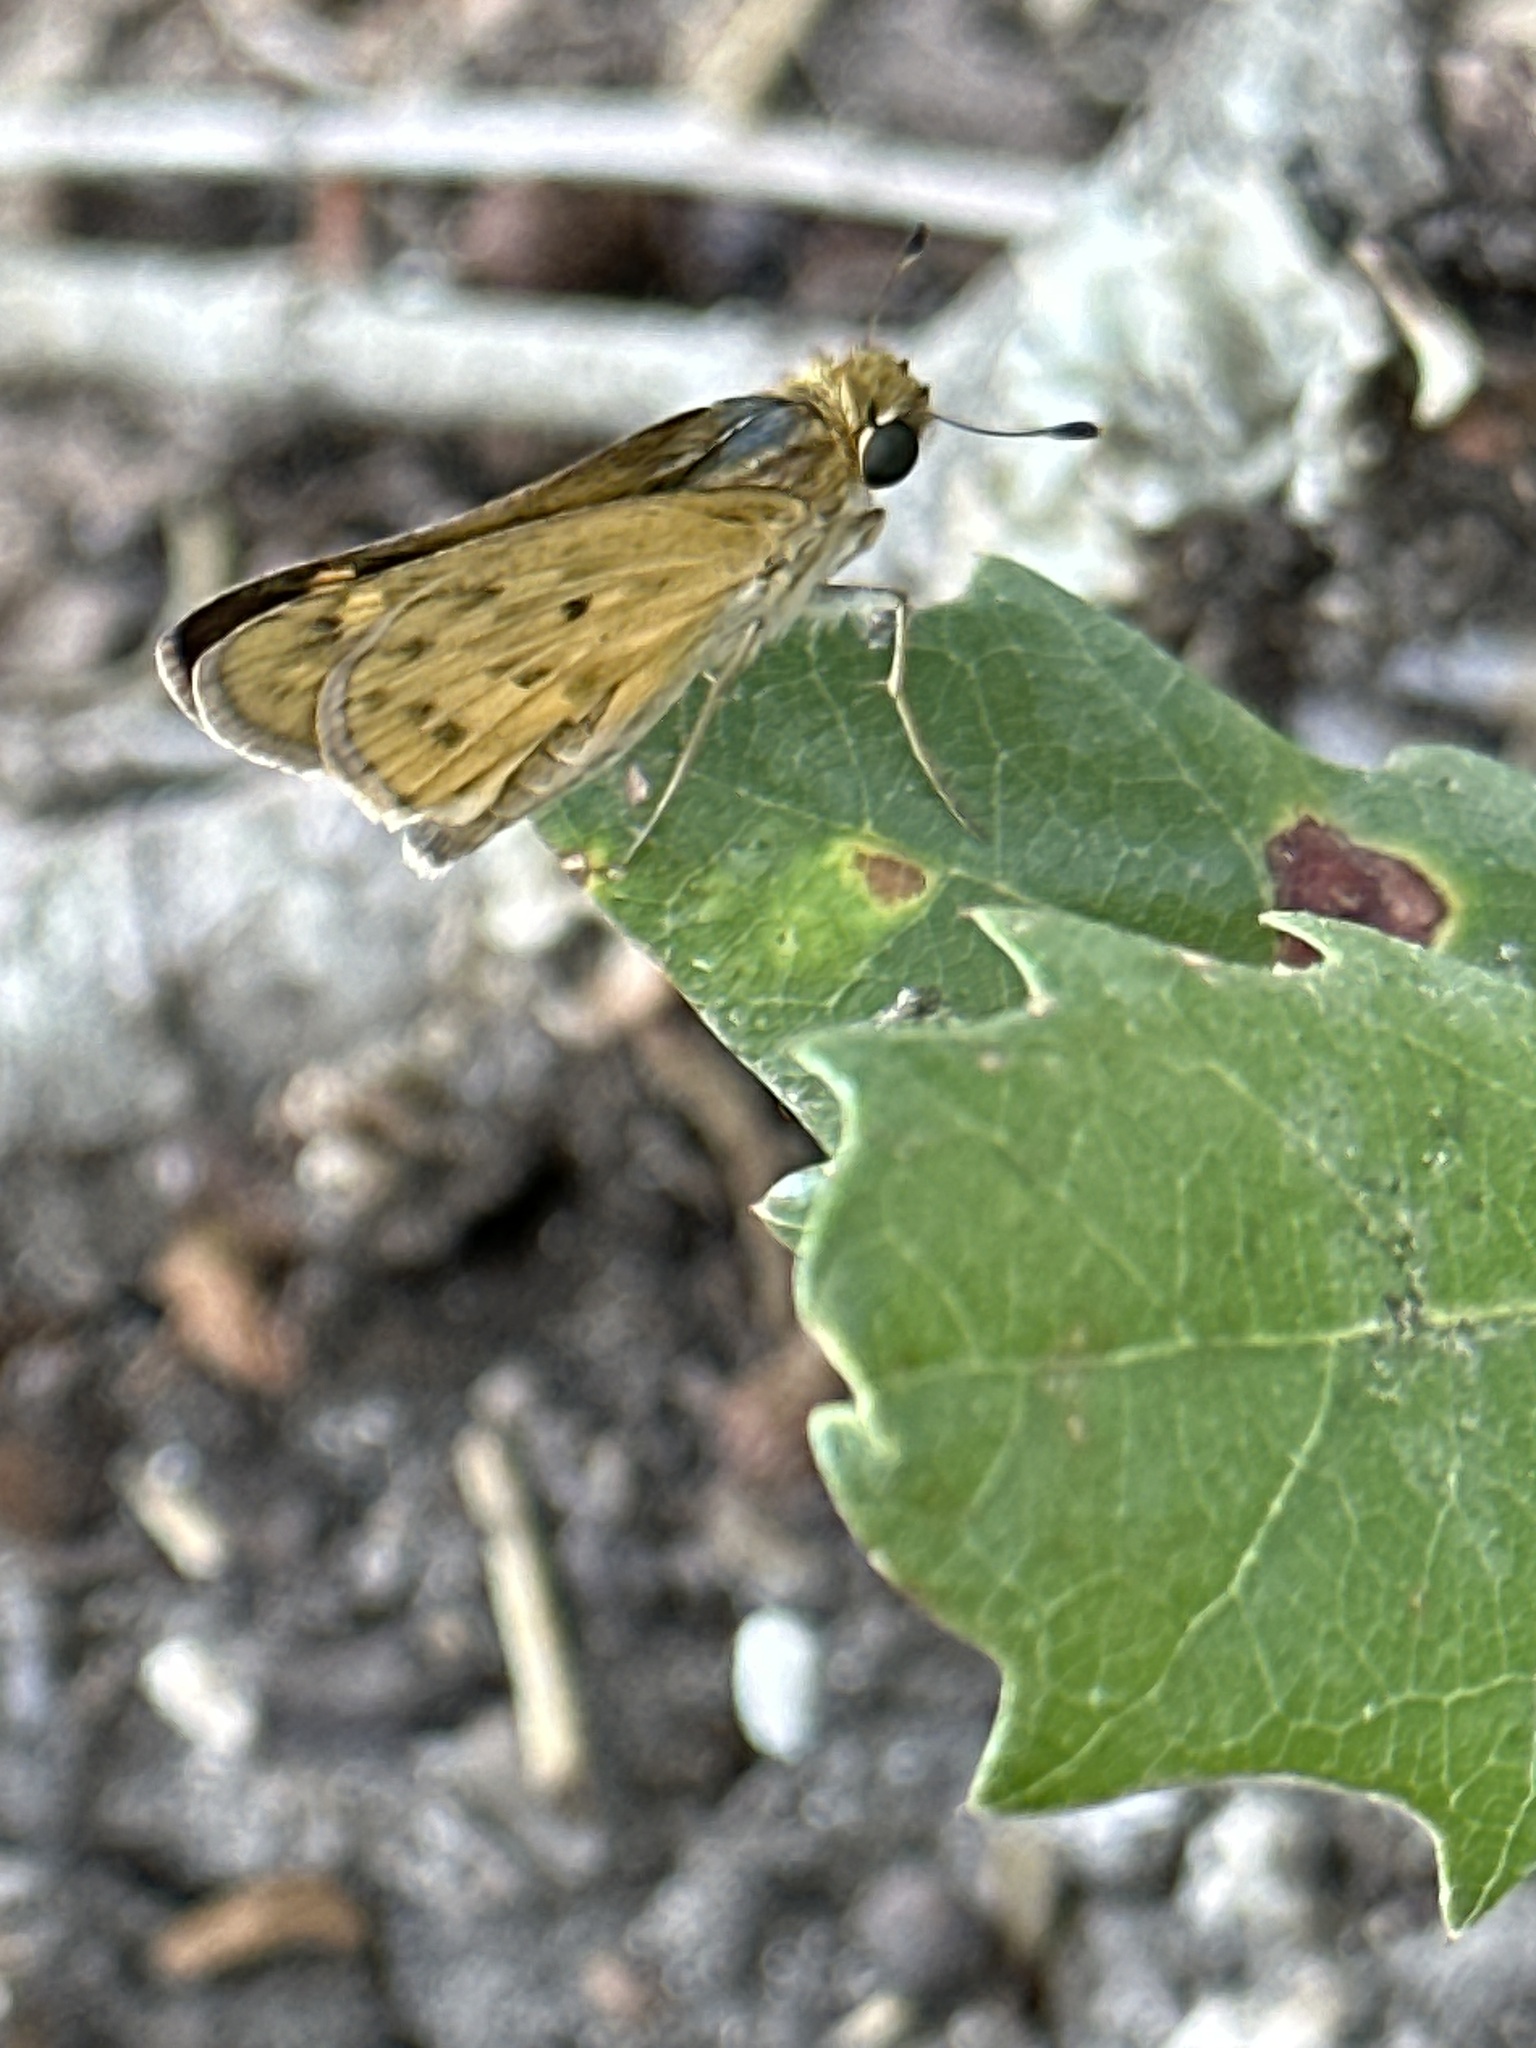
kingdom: Animalia
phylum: Arthropoda
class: Insecta
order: Lepidoptera
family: Hesperiidae
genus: Hylephila
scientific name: Hylephila phyleus
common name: Fiery skipper
